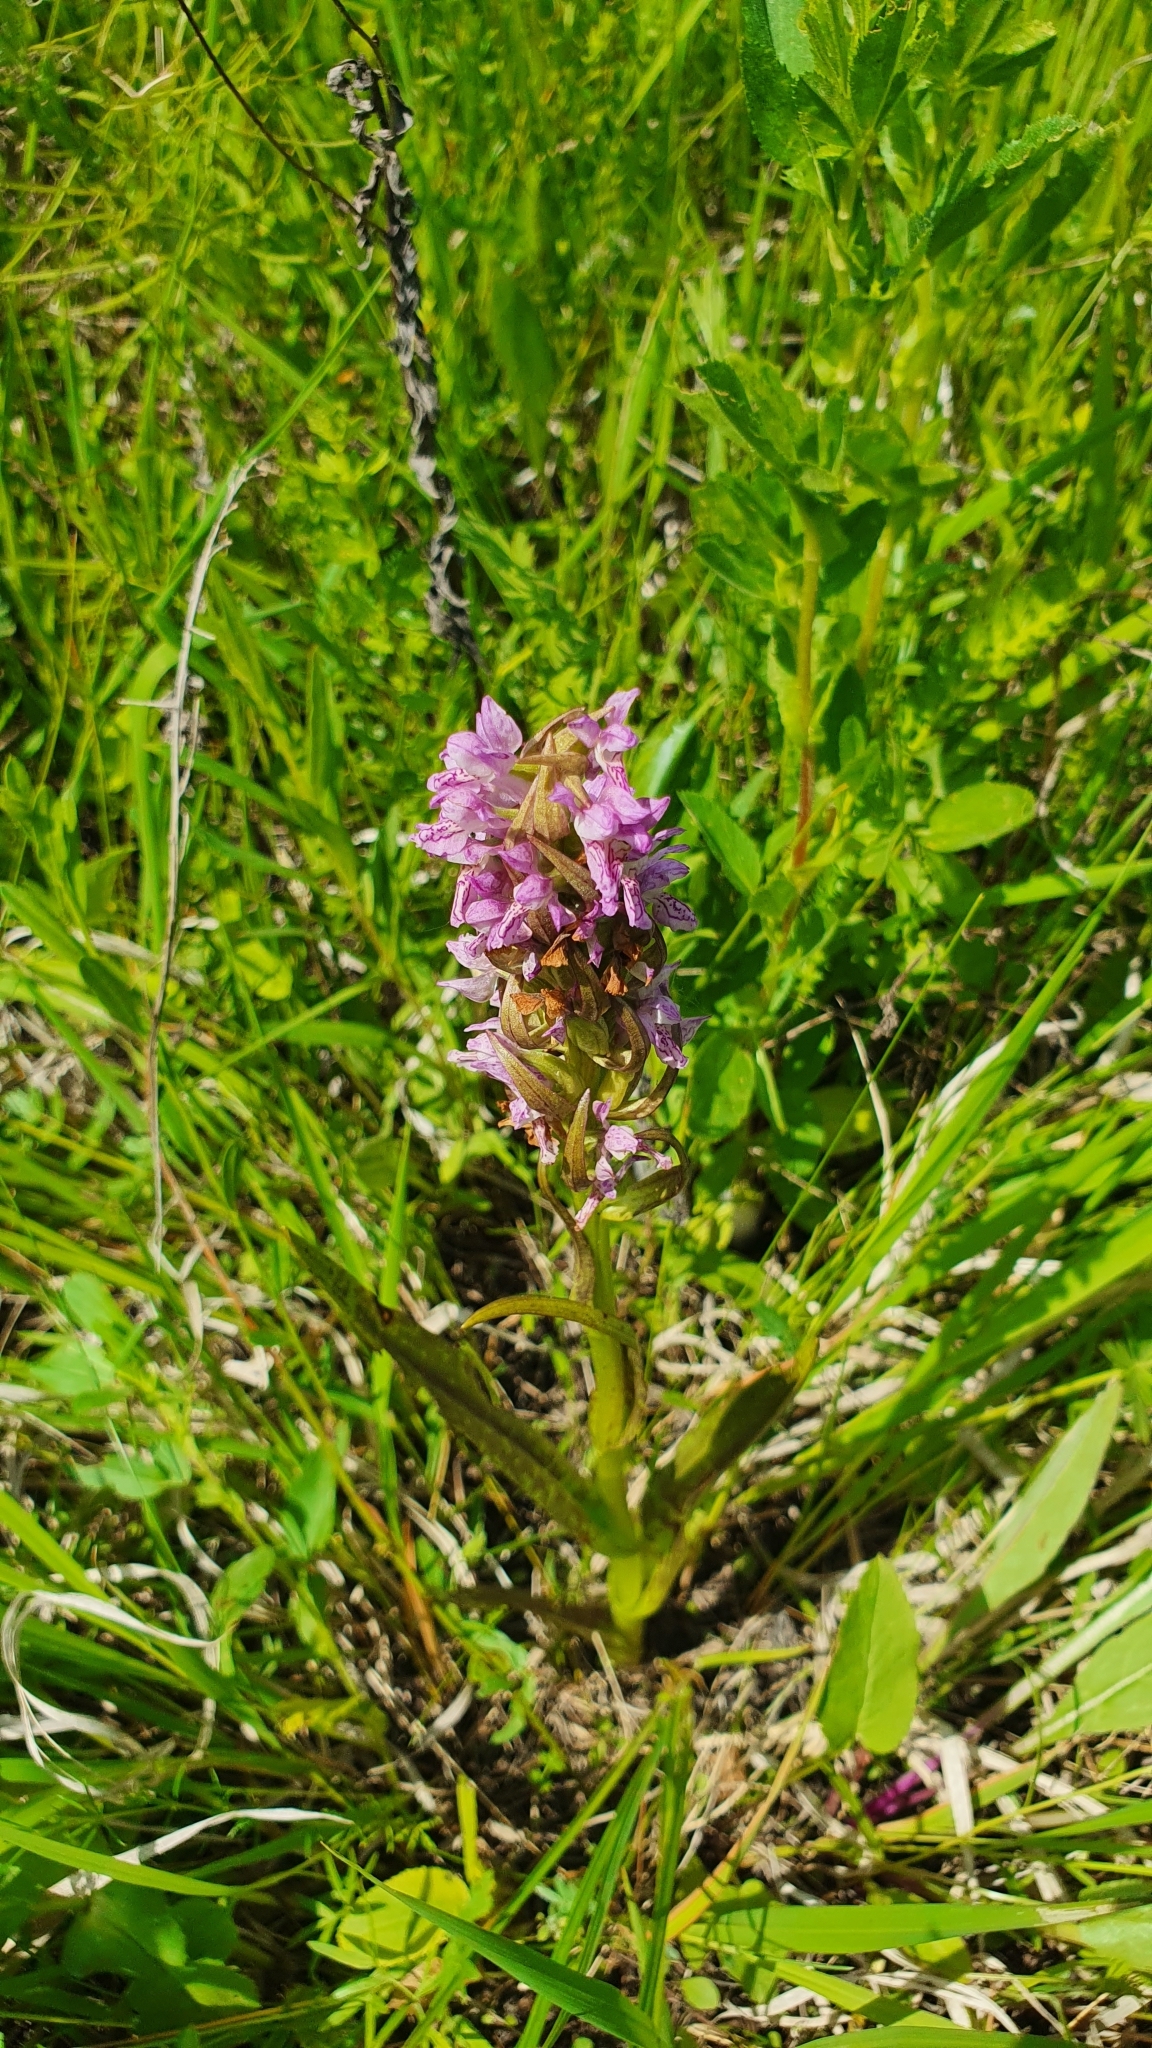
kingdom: Plantae
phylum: Tracheophyta
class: Liliopsida
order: Asparagales
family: Orchidaceae
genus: Dactylorhiza
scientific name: Dactylorhiza incarnata
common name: Early marsh-orchid
